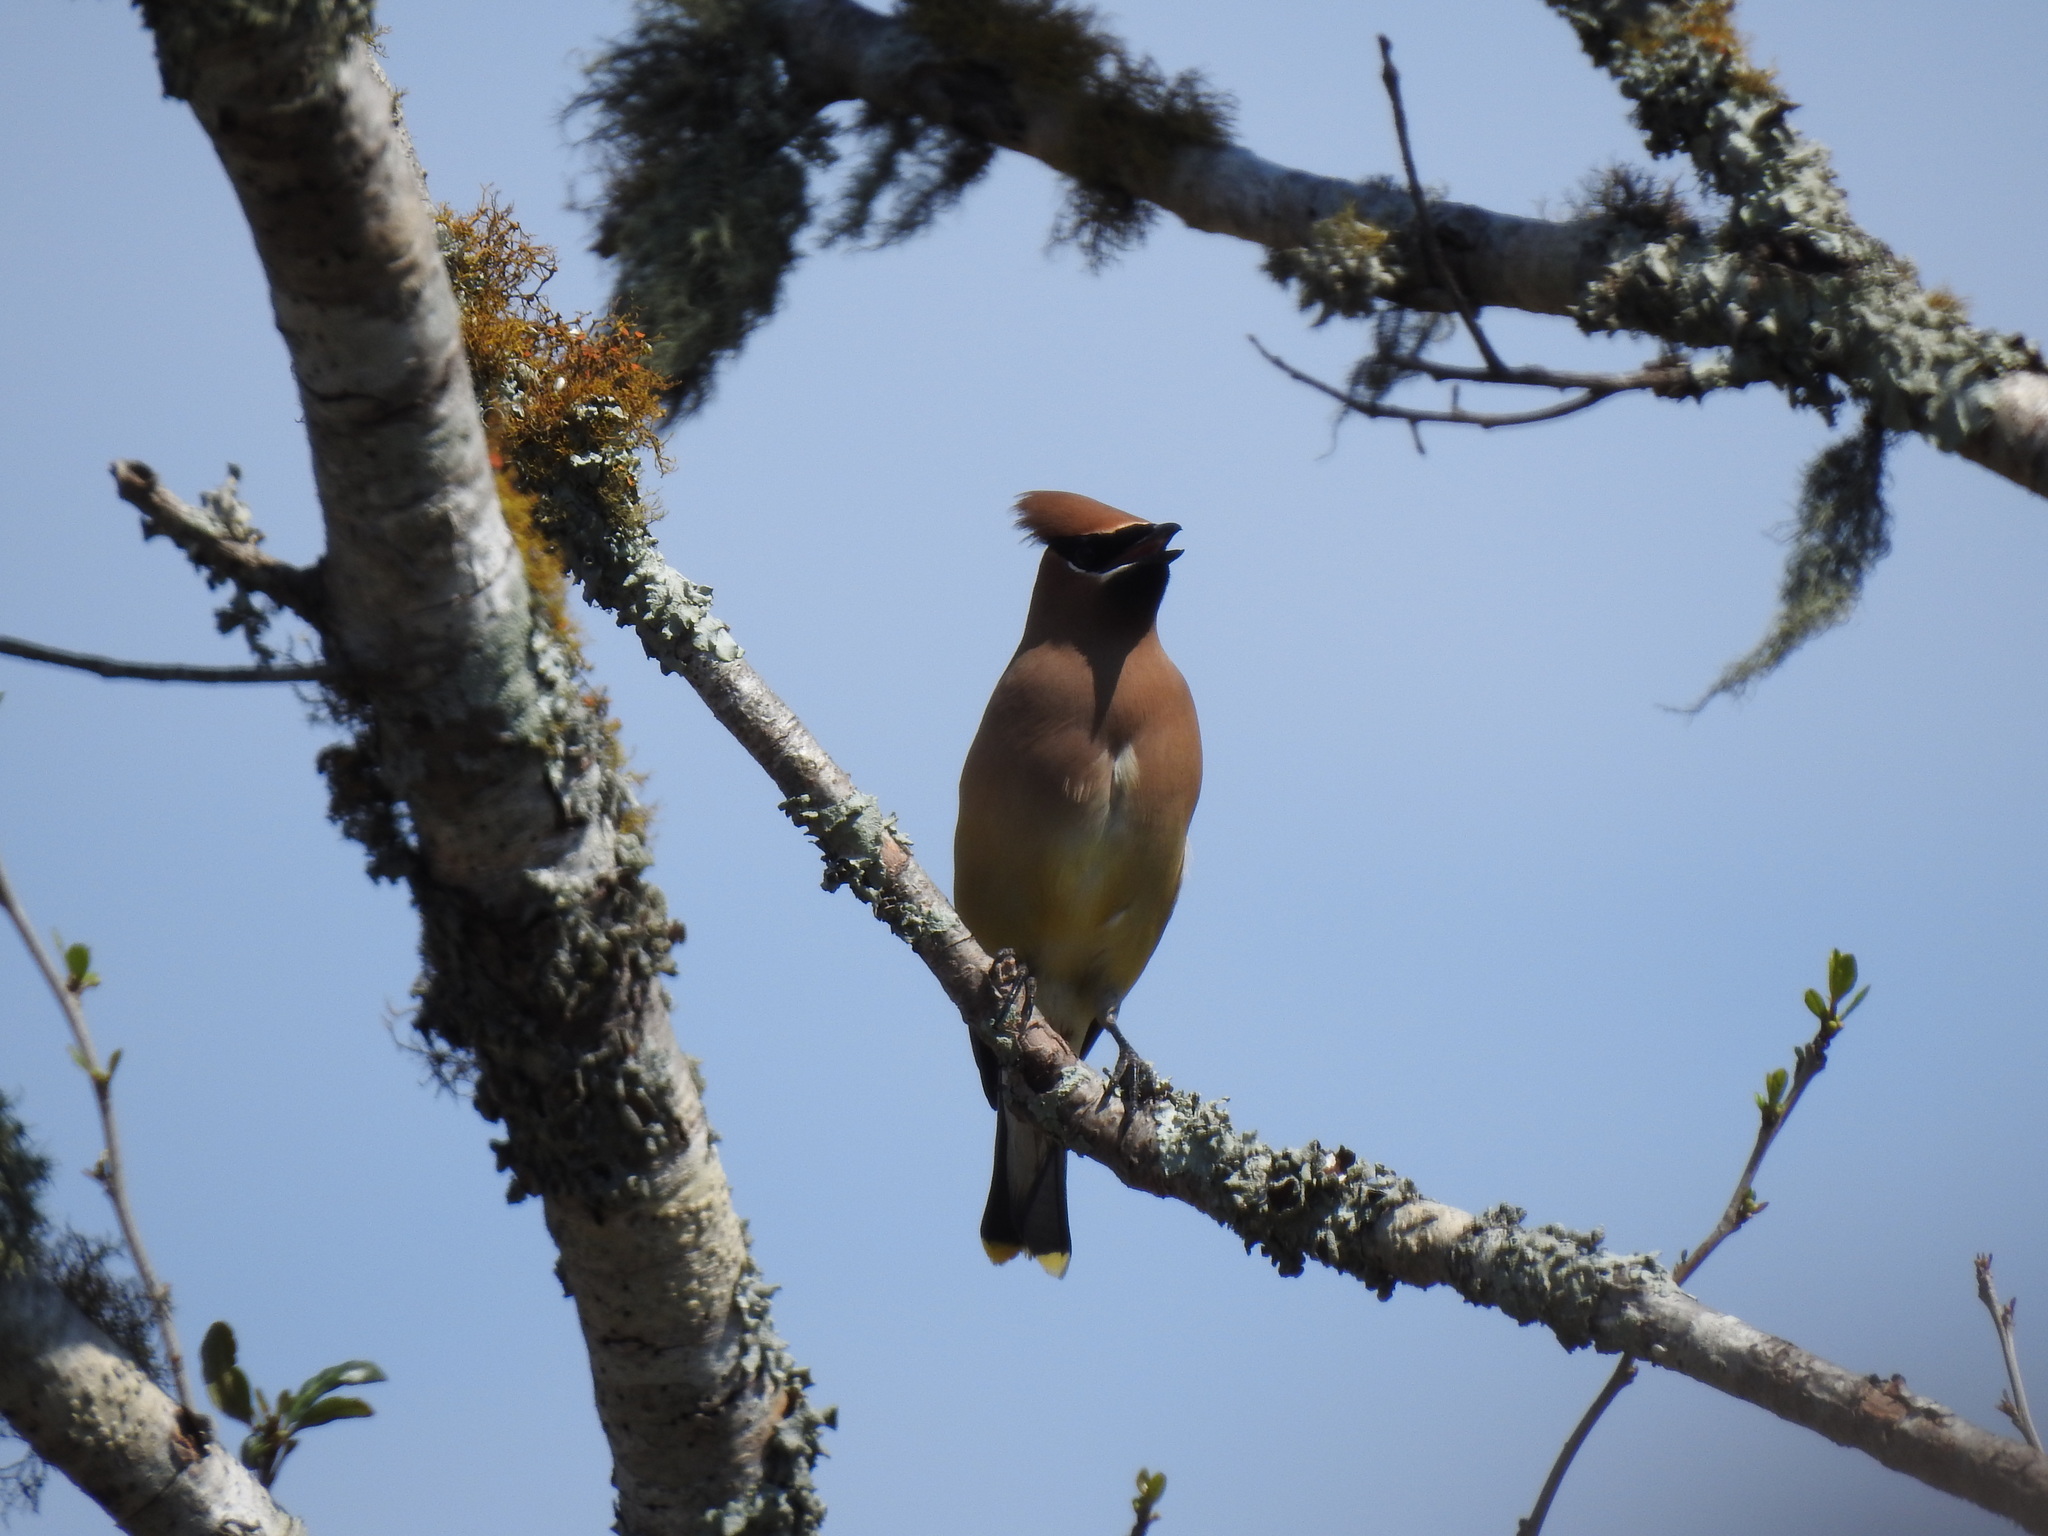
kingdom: Animalia
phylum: Chordata
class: Aves
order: Passeriformes
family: Bombycillidae
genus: Bombycilla
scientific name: Bombycilla cedrorum
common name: Cedar waxwing
